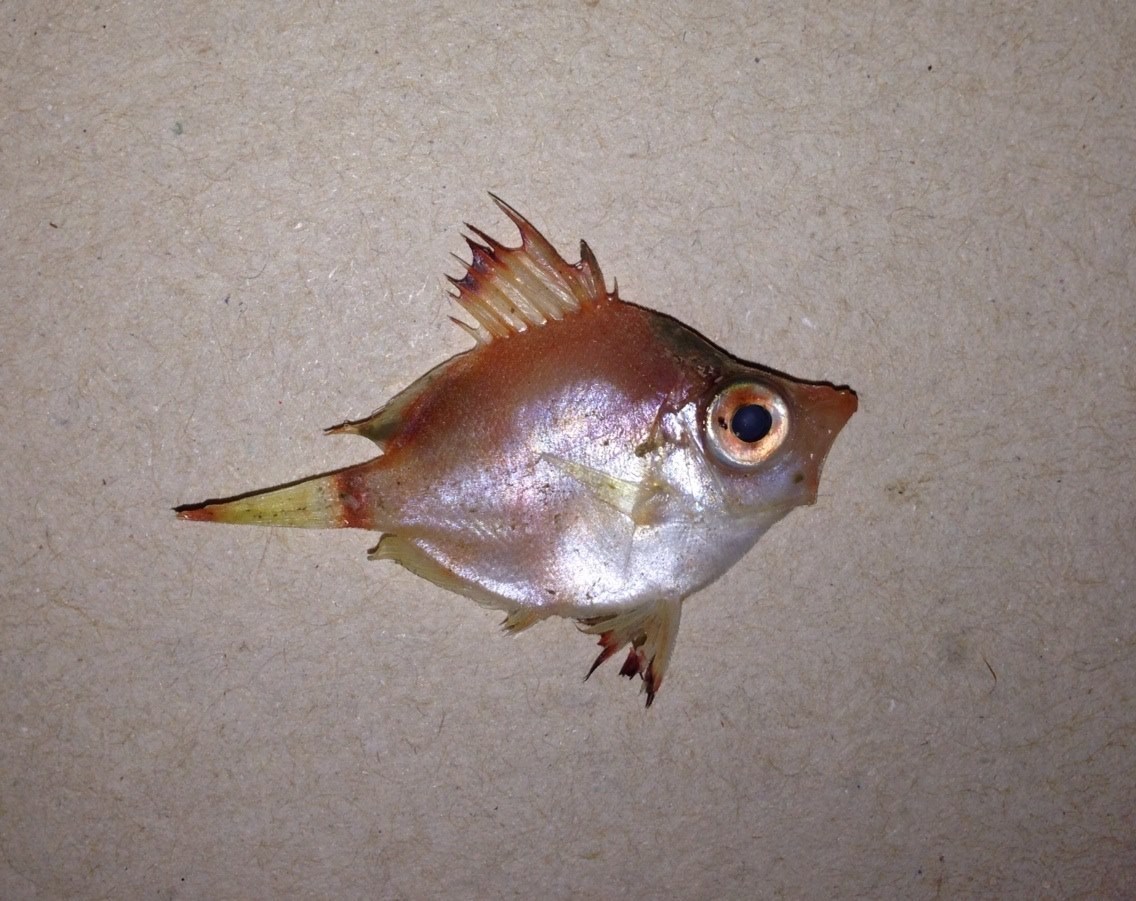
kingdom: Animalia
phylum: Chordata
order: Perciformes
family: Caproidae
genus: Capros
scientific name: Capros aper
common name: Boarfish
